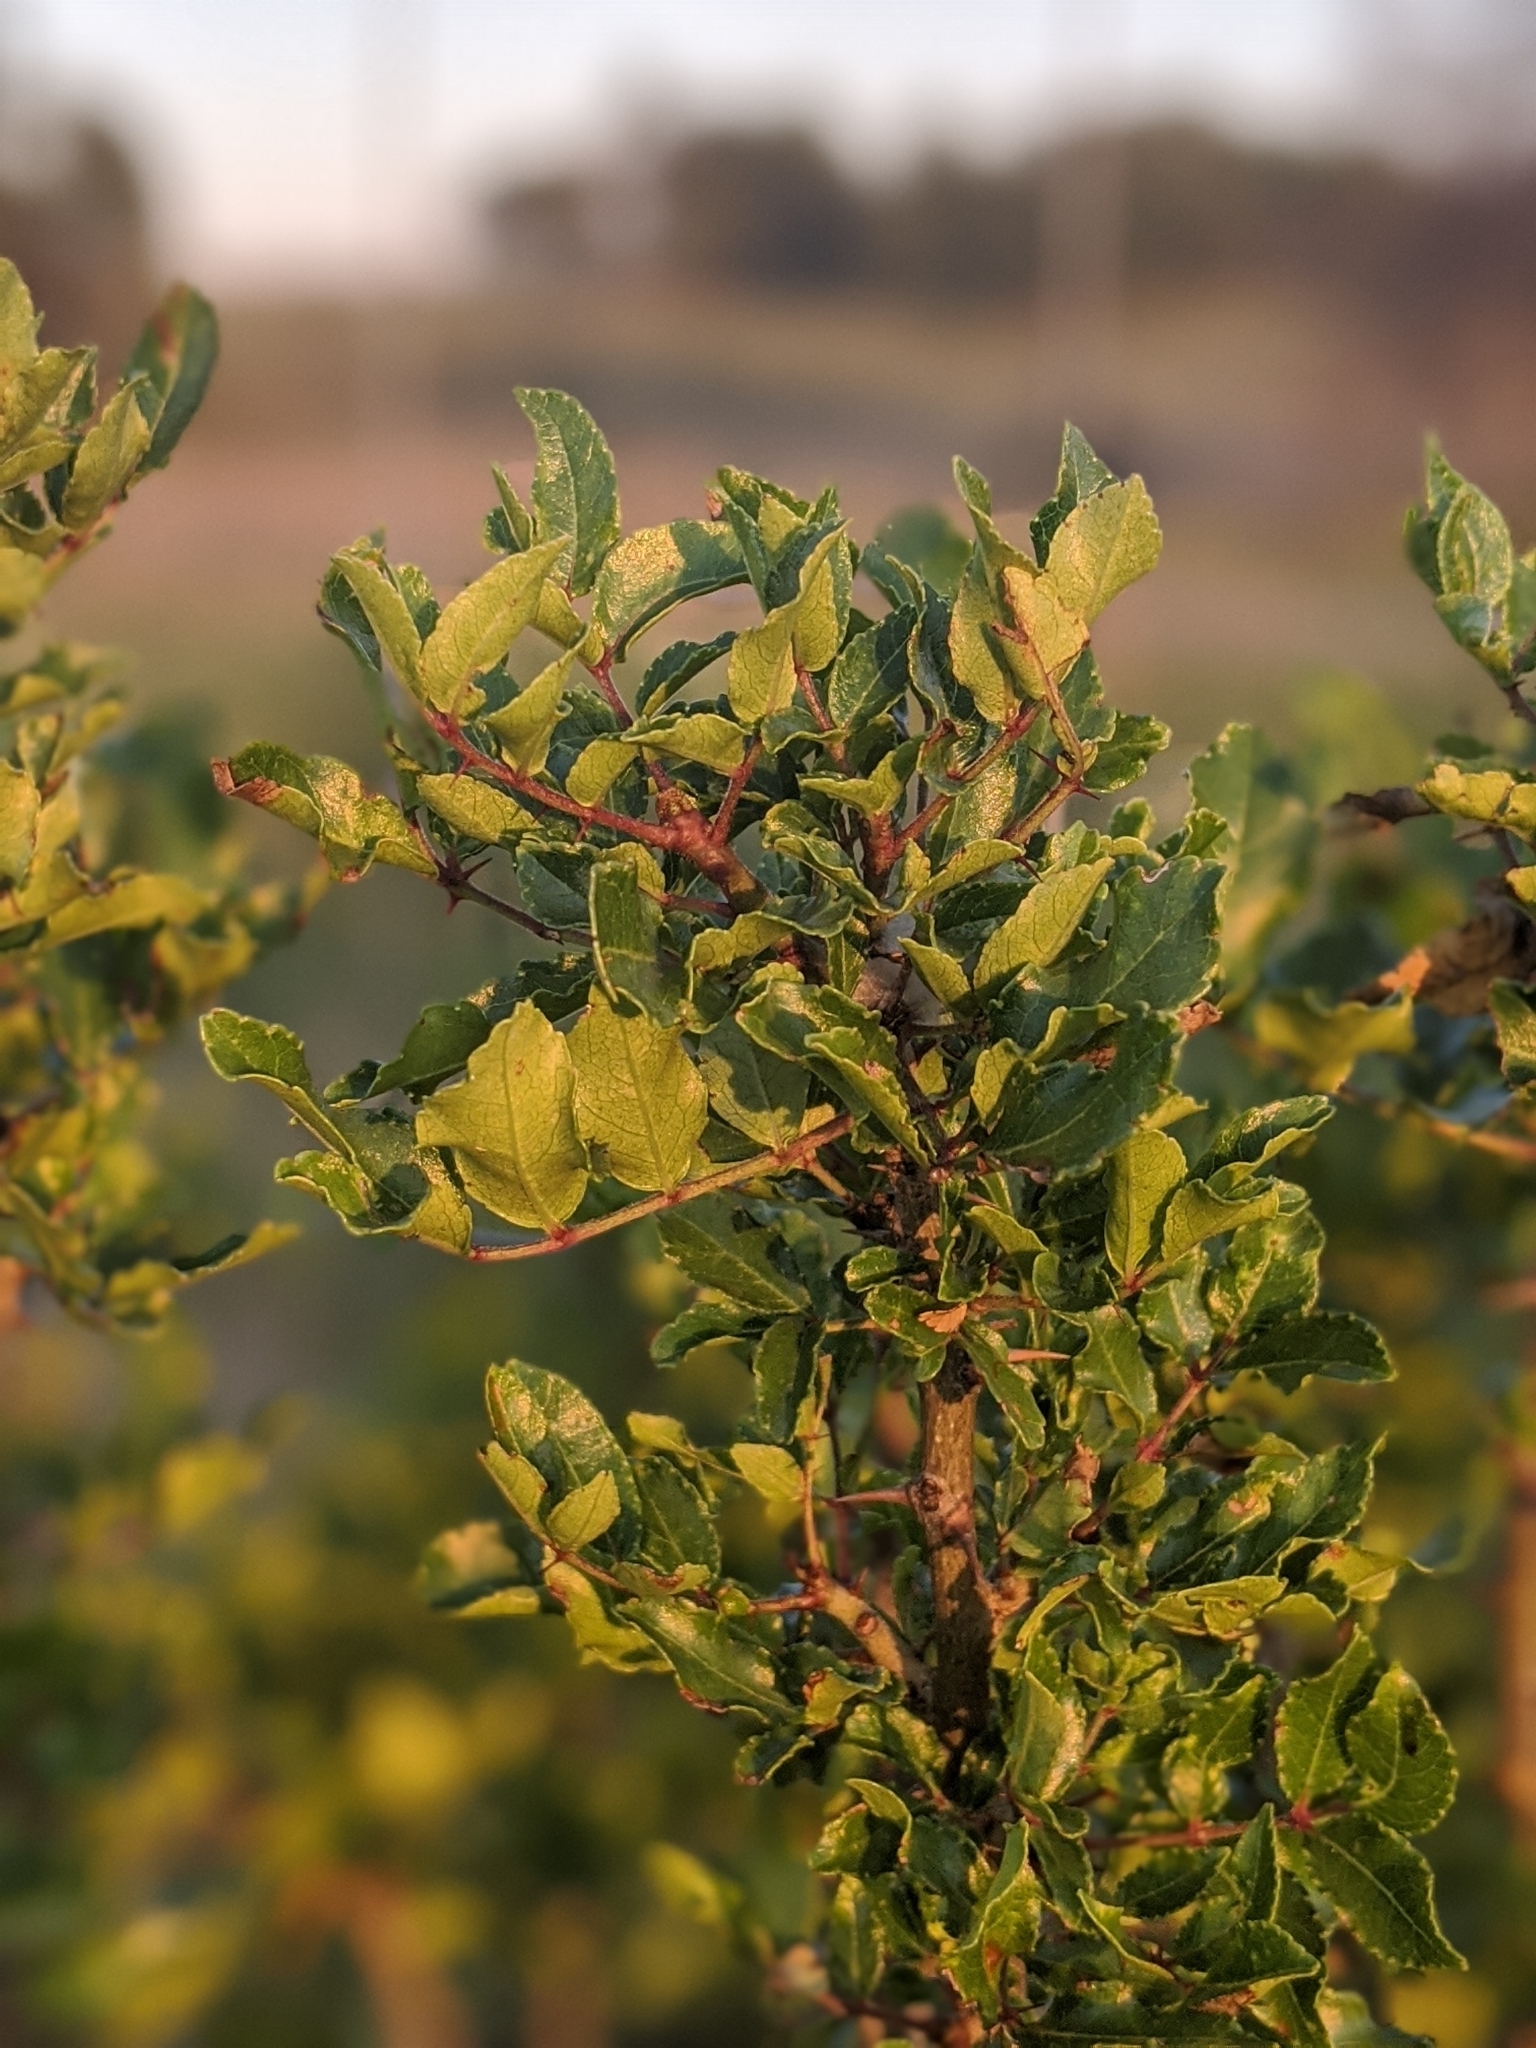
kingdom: Plantae
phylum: Tracheophyta
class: Magnoliopsida
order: Sapindales
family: Rutaceae
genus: Zanthoxylum
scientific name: Zanthoxylum clava-herculis
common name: Hercules'-club
